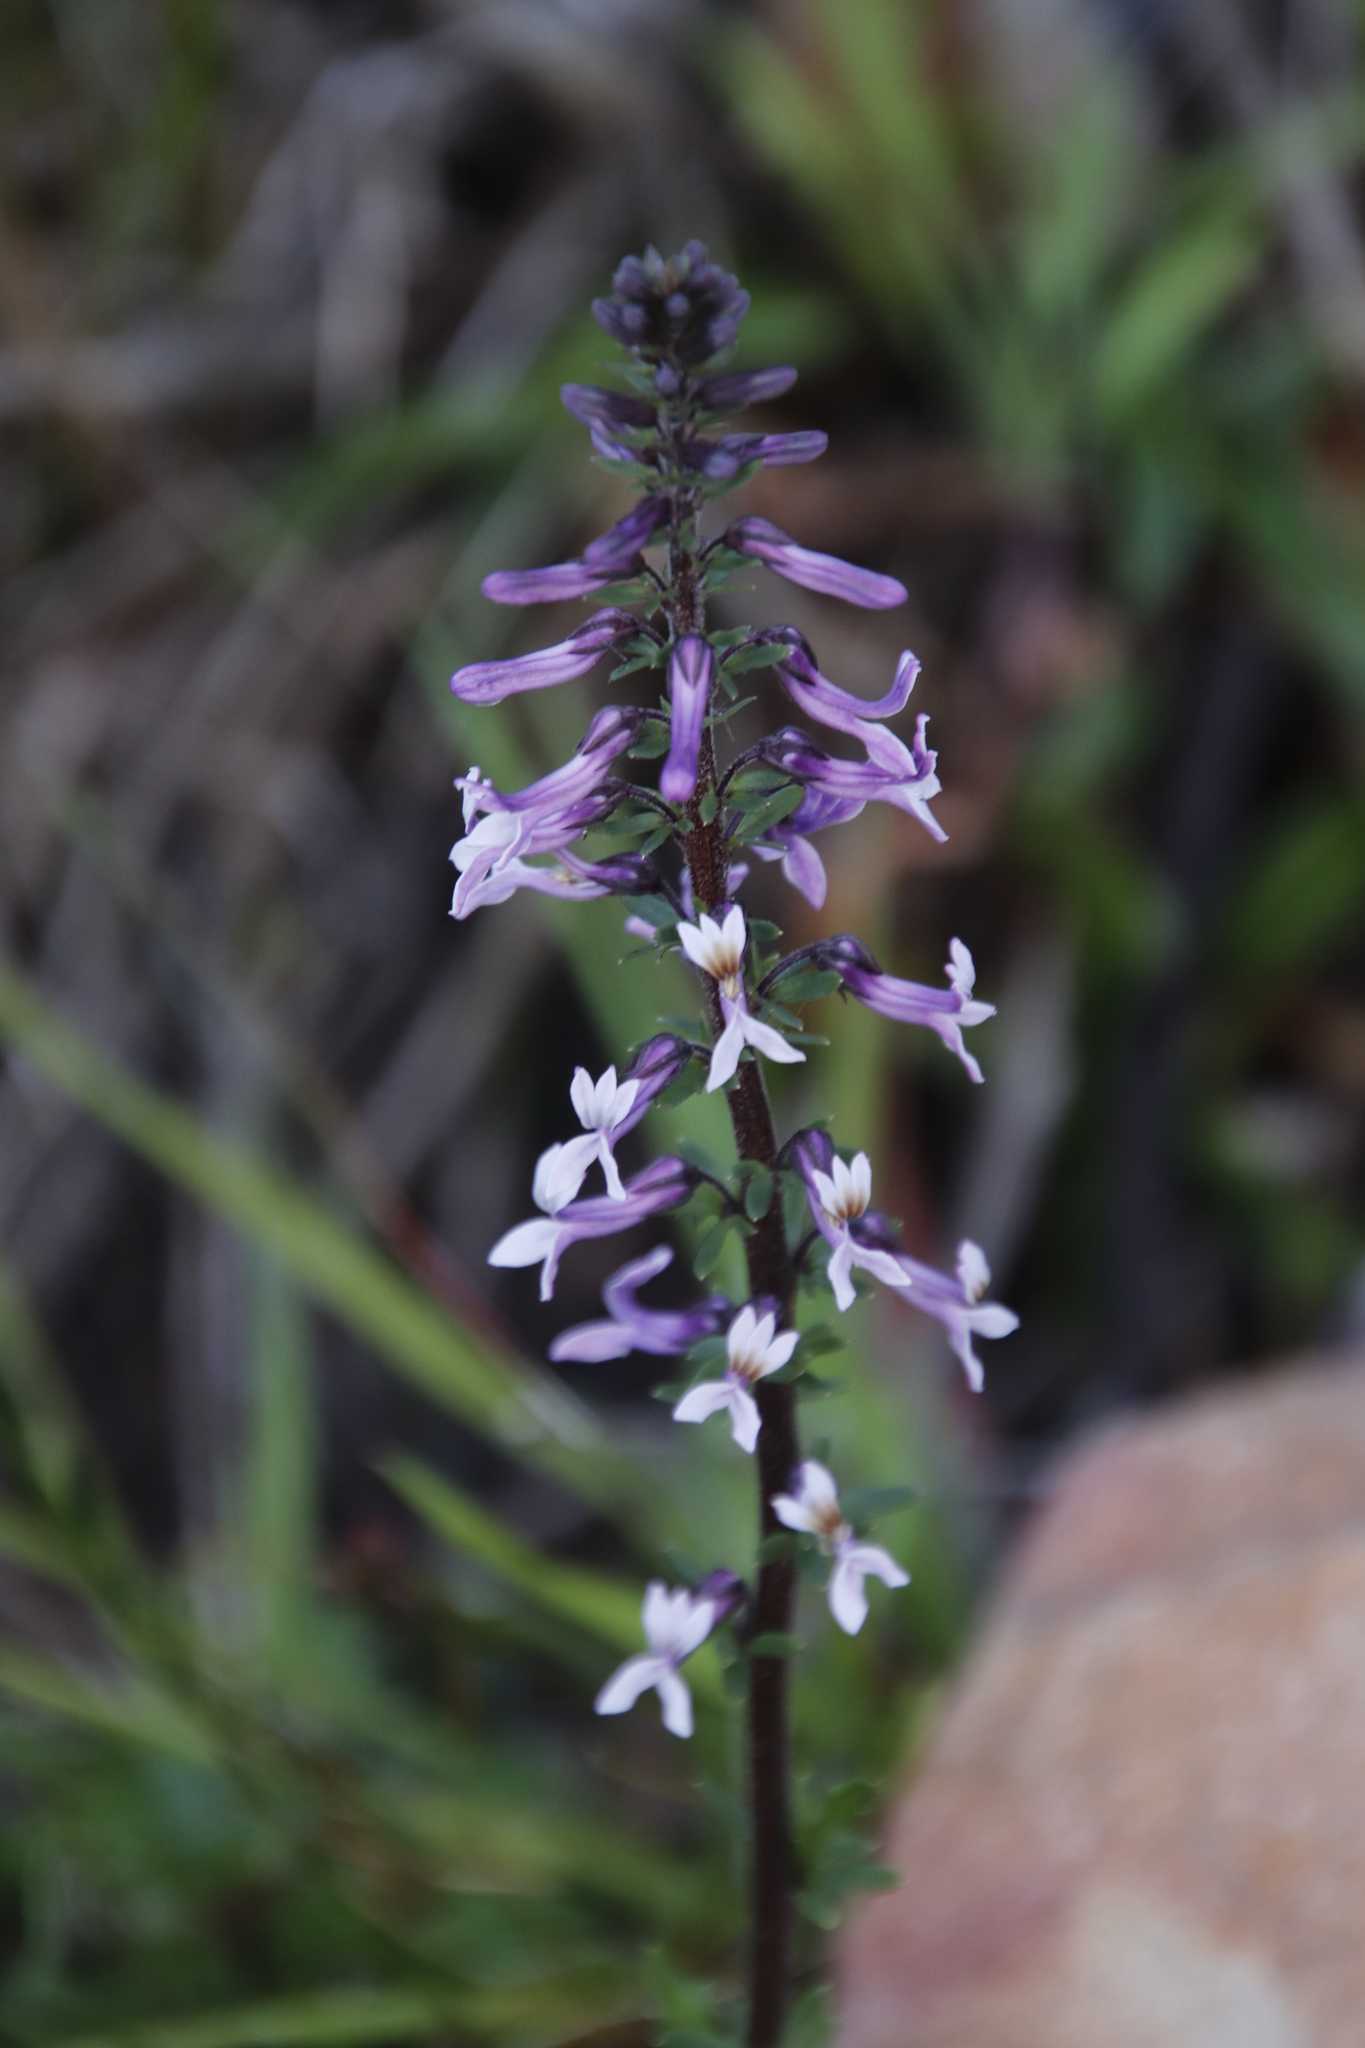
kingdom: Plantae
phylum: Tracheophyta
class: Magnoliopsida
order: Asterales
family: Campanulaceae
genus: Cyphia
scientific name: Cyphia bulbosa
